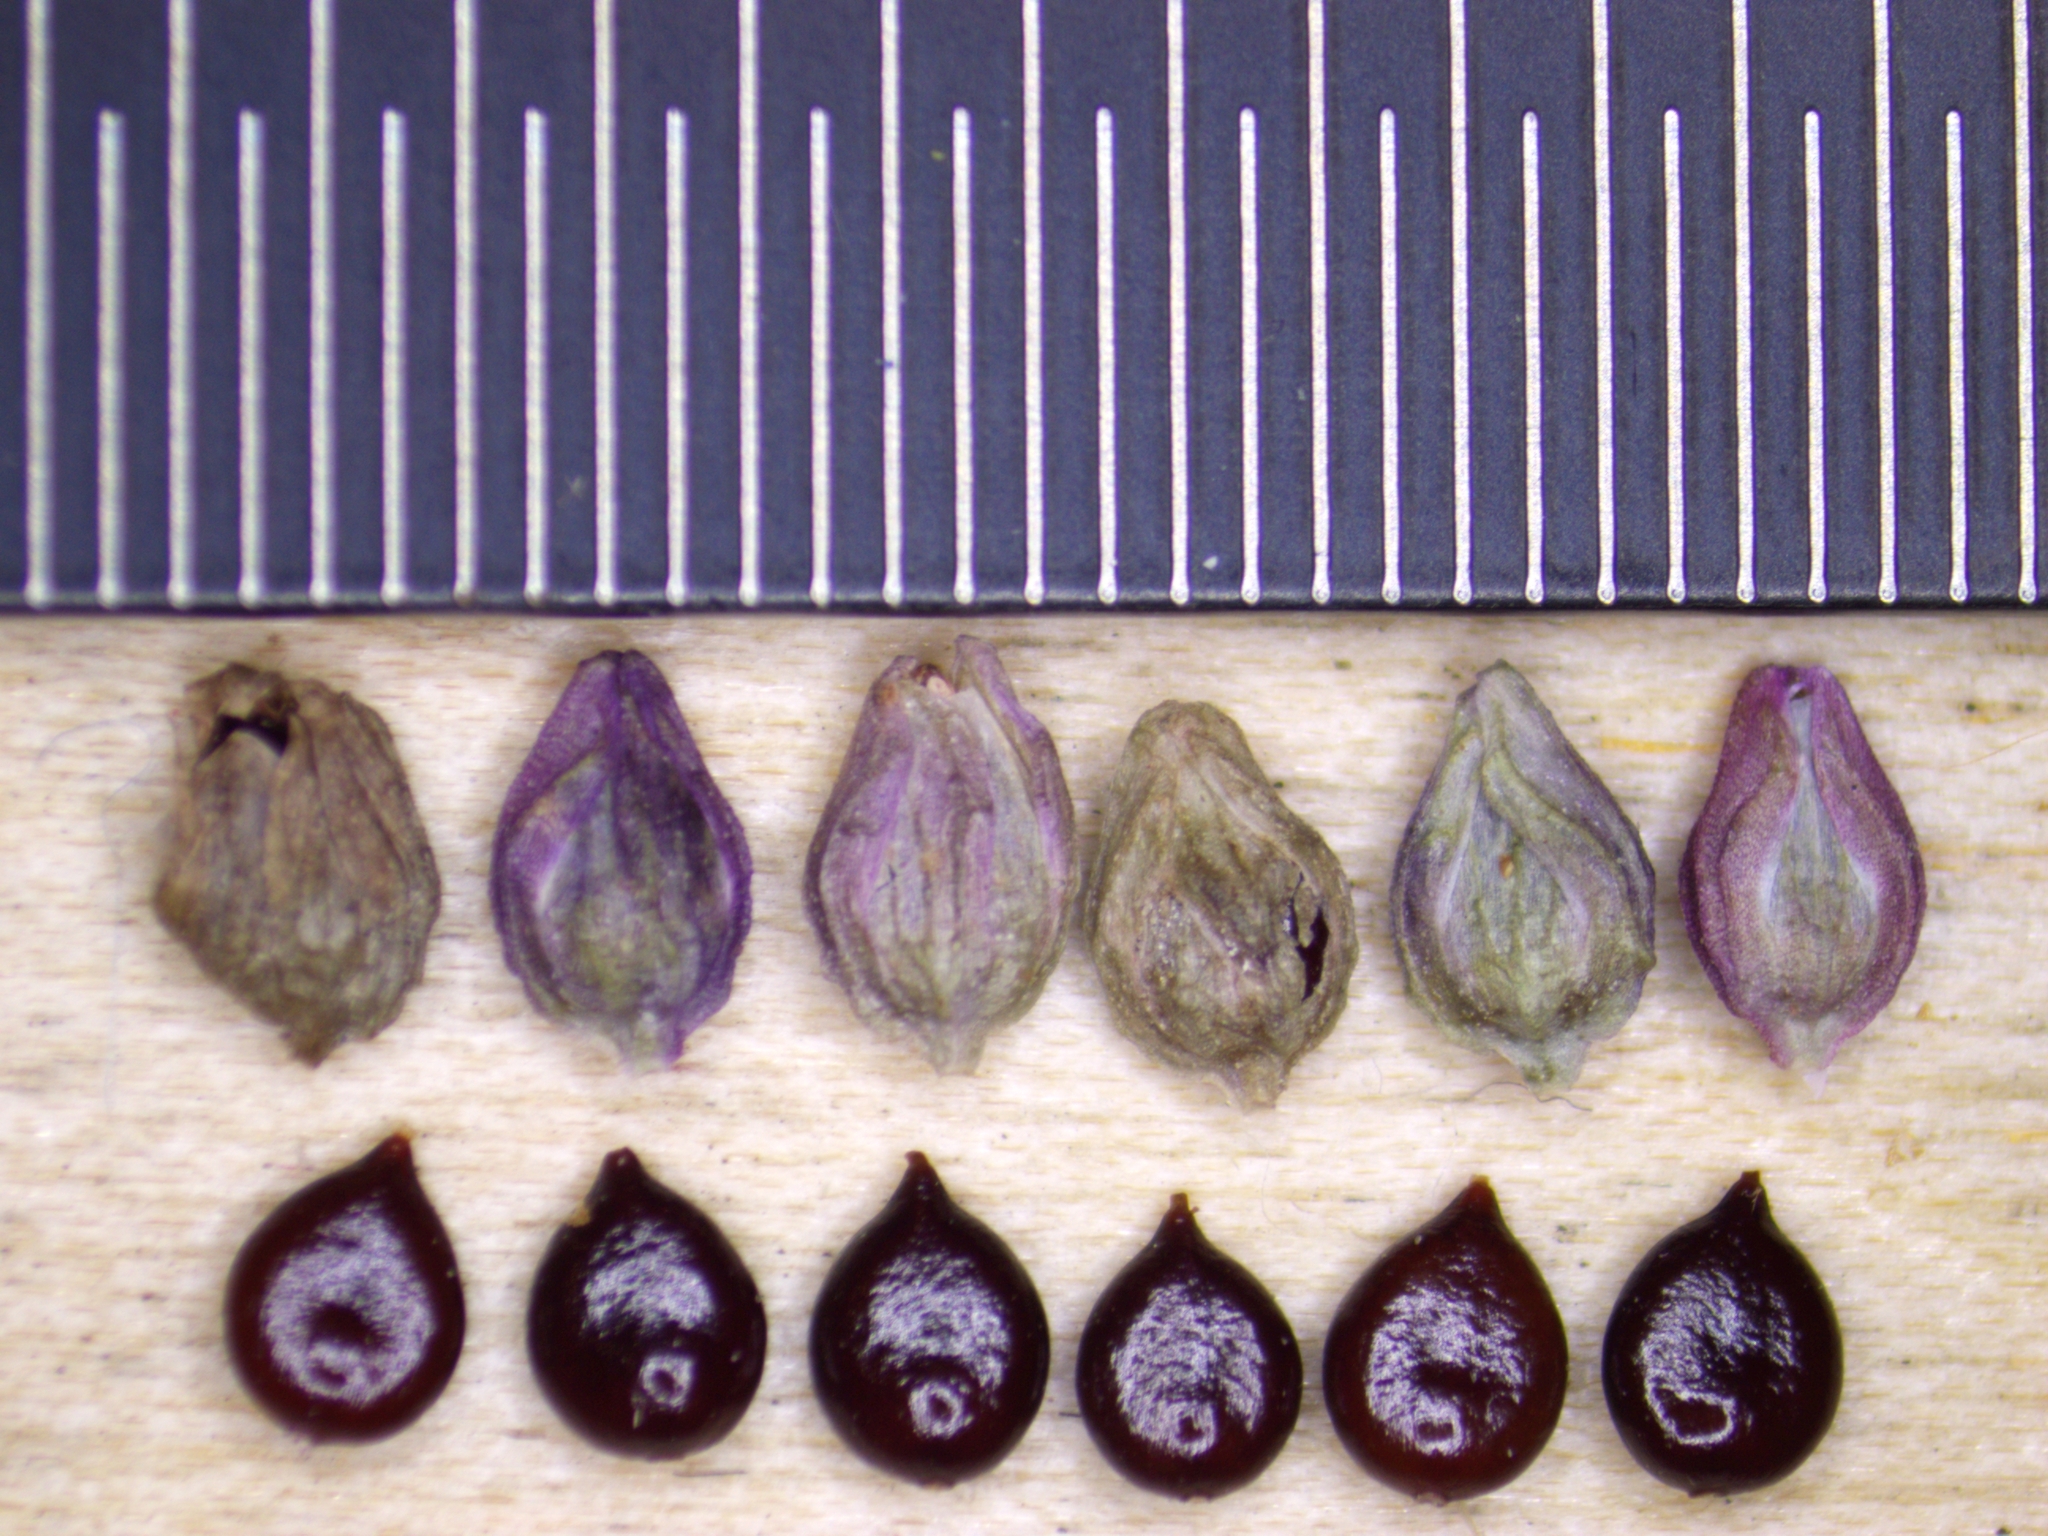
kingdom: Plantae
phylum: Tracheophyta
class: Magnoliopsida
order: Caryophyllales
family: Polygonaceae
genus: Persicaria
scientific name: Persicaria extremiorientalis
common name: Far-eastern smartweed
